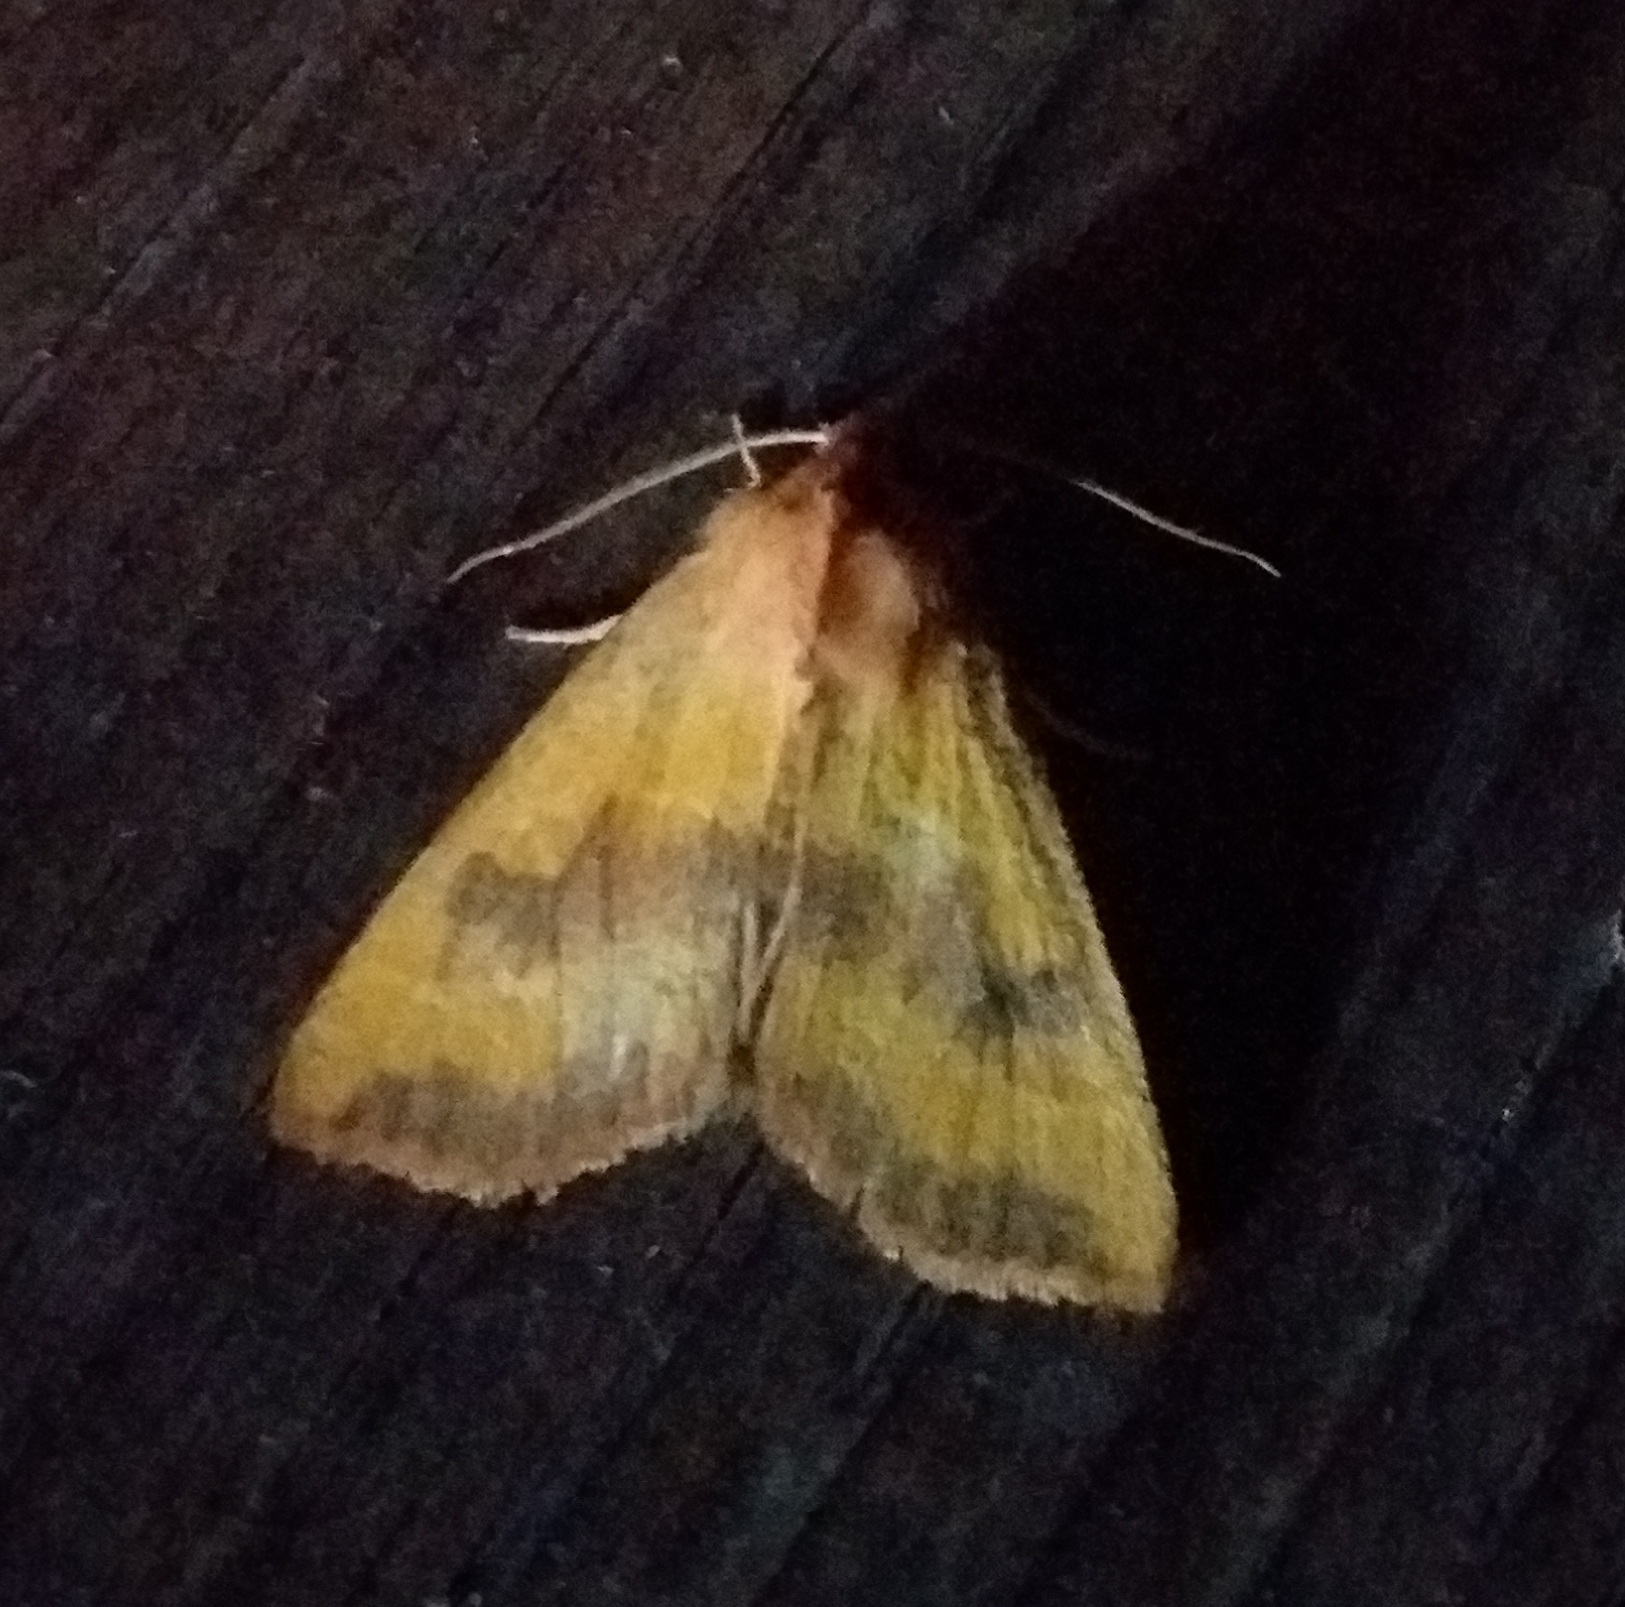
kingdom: Animalia
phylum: Arthropoda
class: Insecta
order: Lepidoptera
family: Noctuidae
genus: Atethmia
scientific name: Atethmia centrago
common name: Centre-barred sallow
